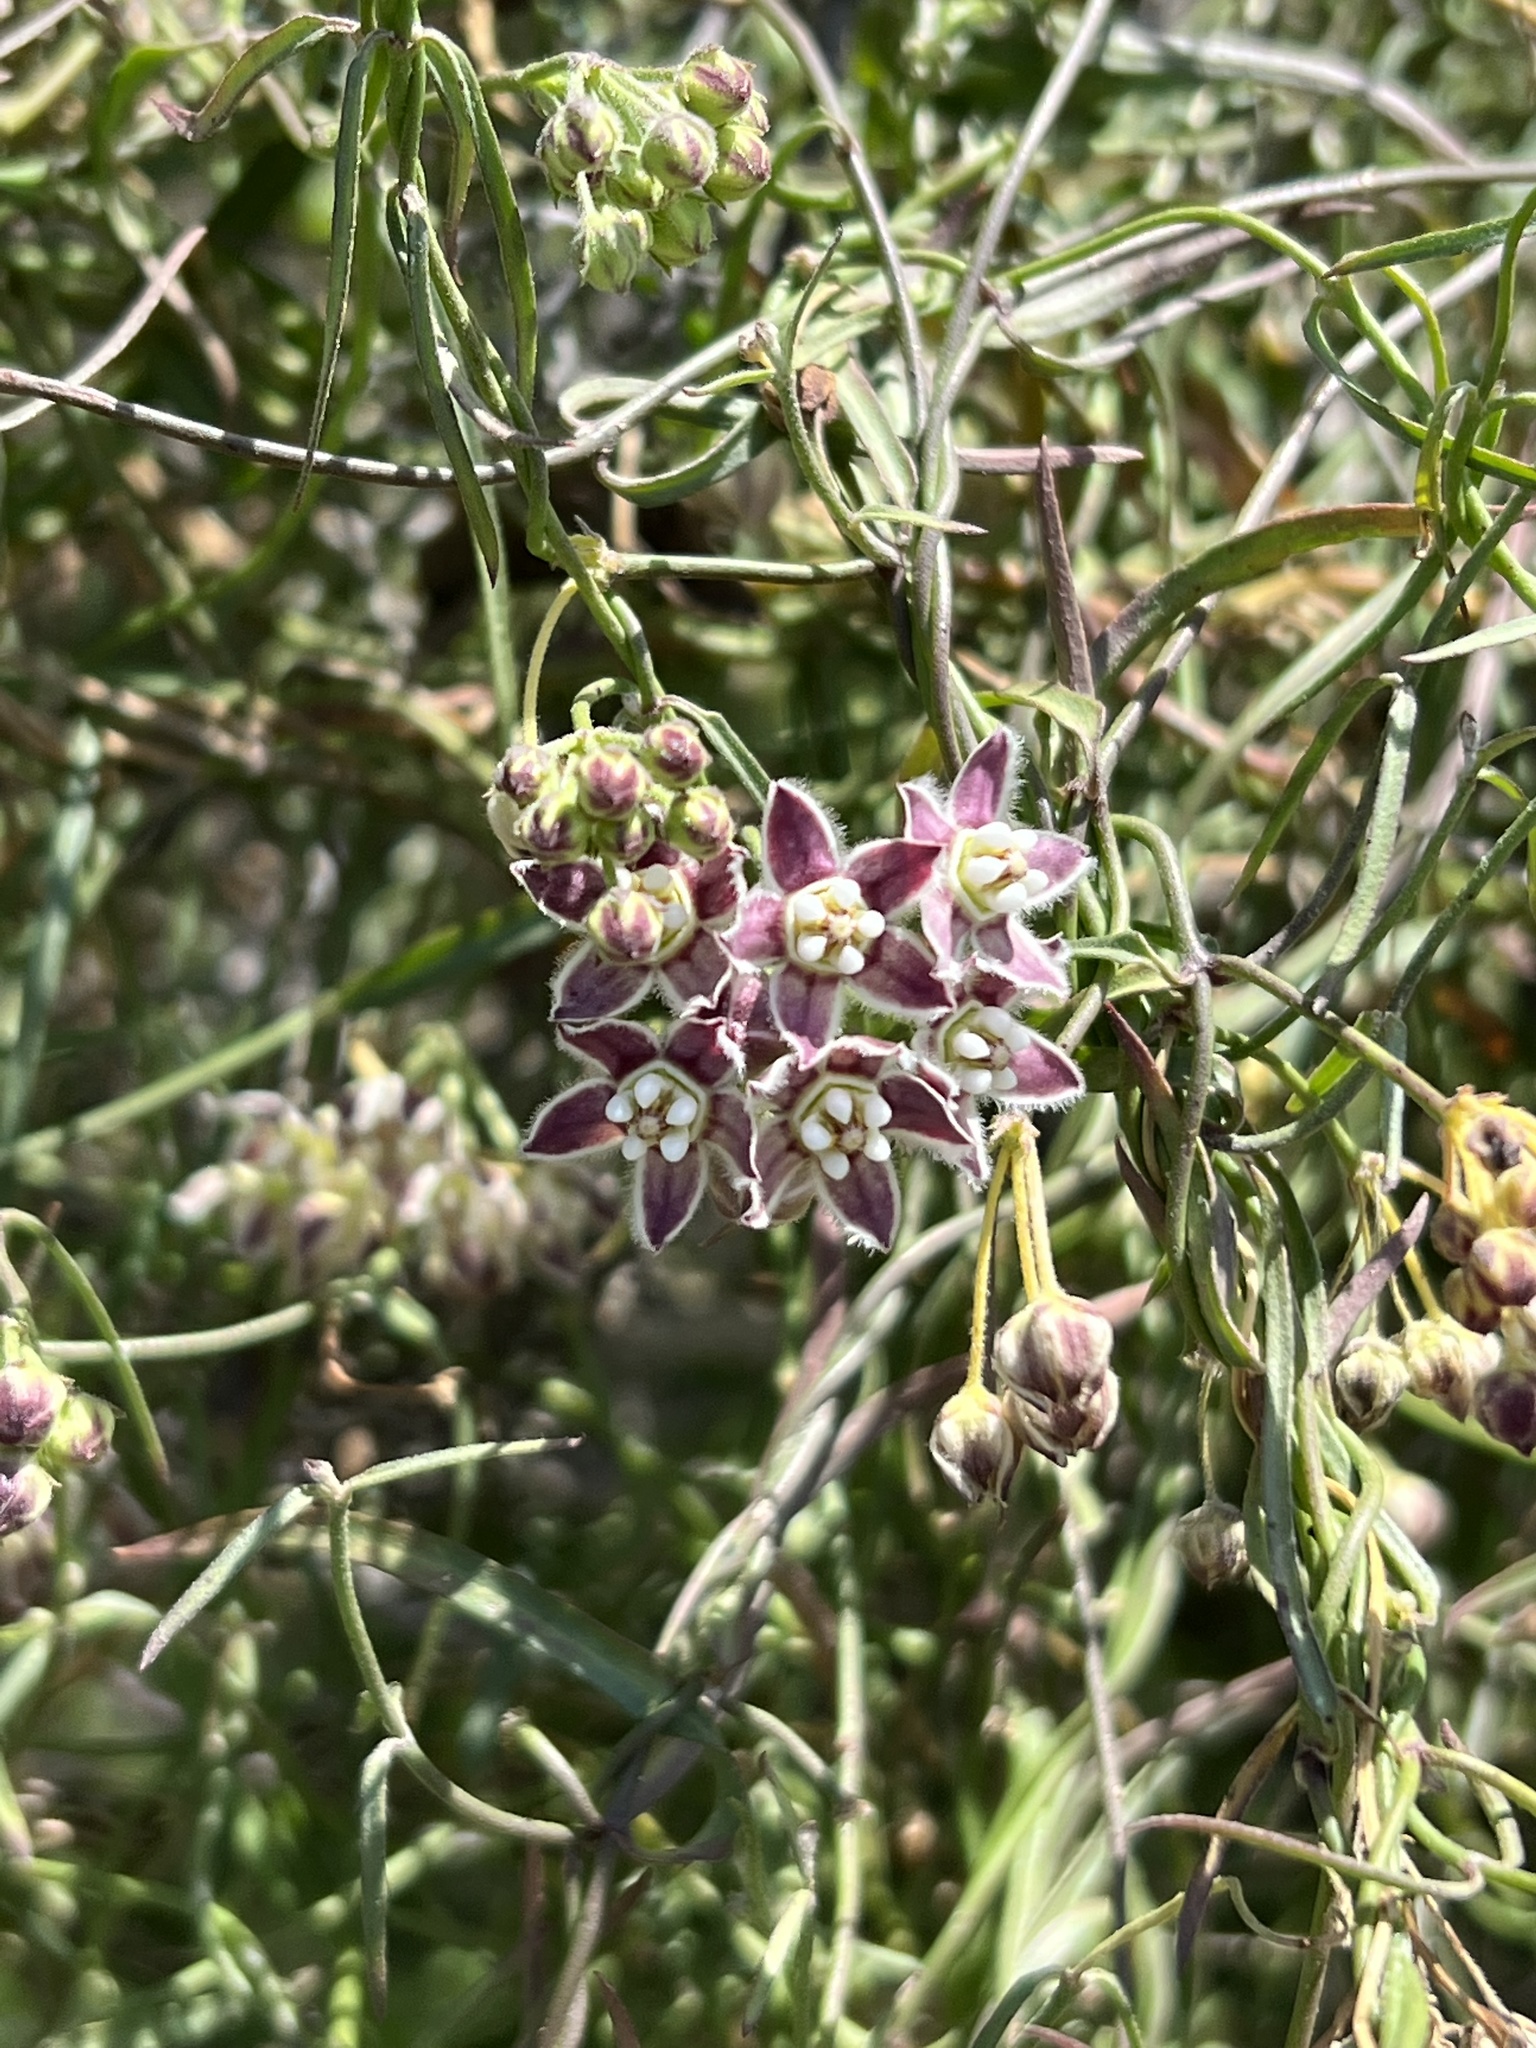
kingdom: Plantae
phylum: Tracheophyta
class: Magnoliopsida
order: Gentianales
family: Apocynaceae
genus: Funastrum
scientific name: Funastrum heterophyllum
